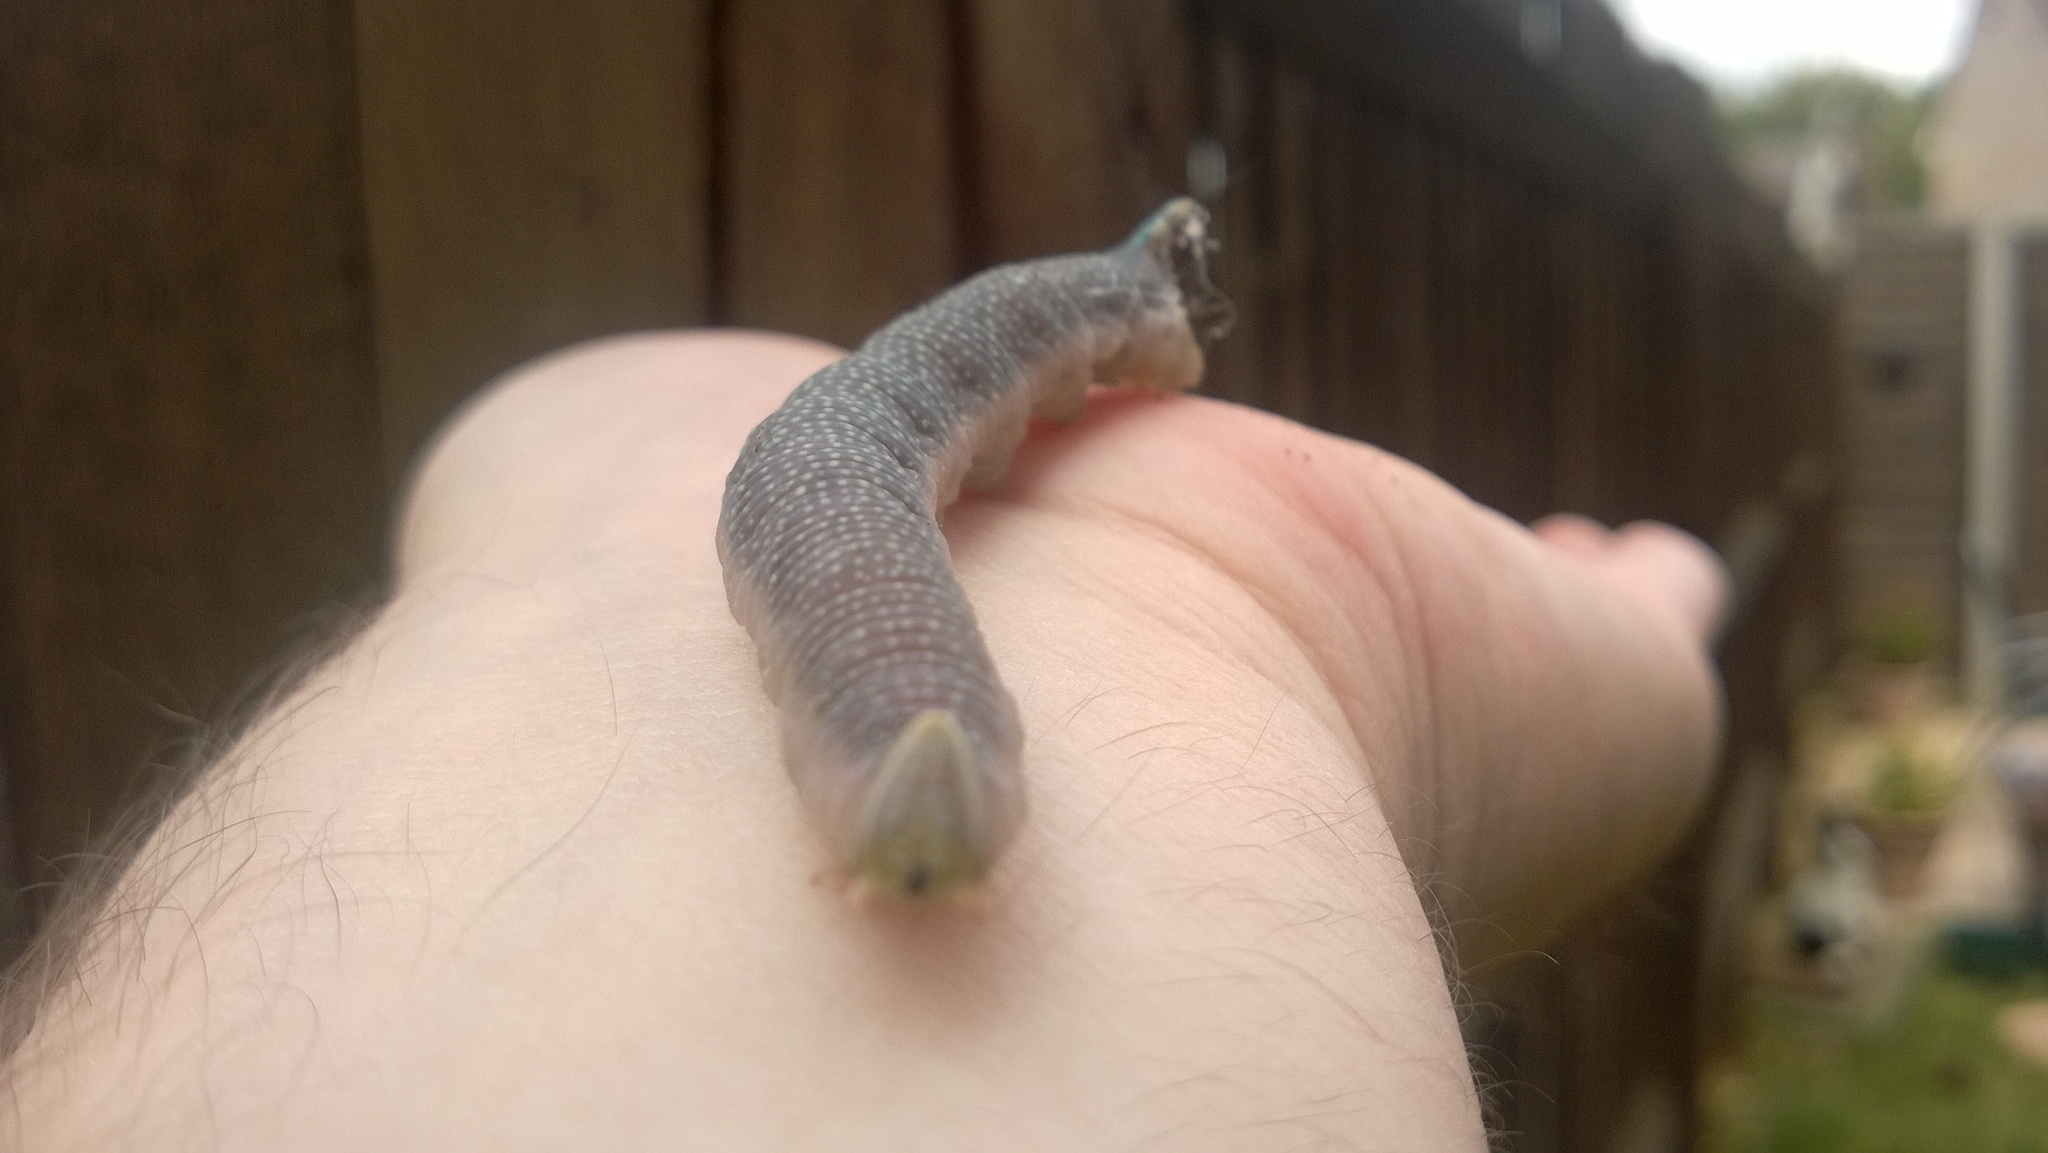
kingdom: Animalia
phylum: Arthropoda
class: Insecta
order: Lepidoptera
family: Sphingidae
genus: Mimas
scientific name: Mimas tiliae
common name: Lime hawk-moth
